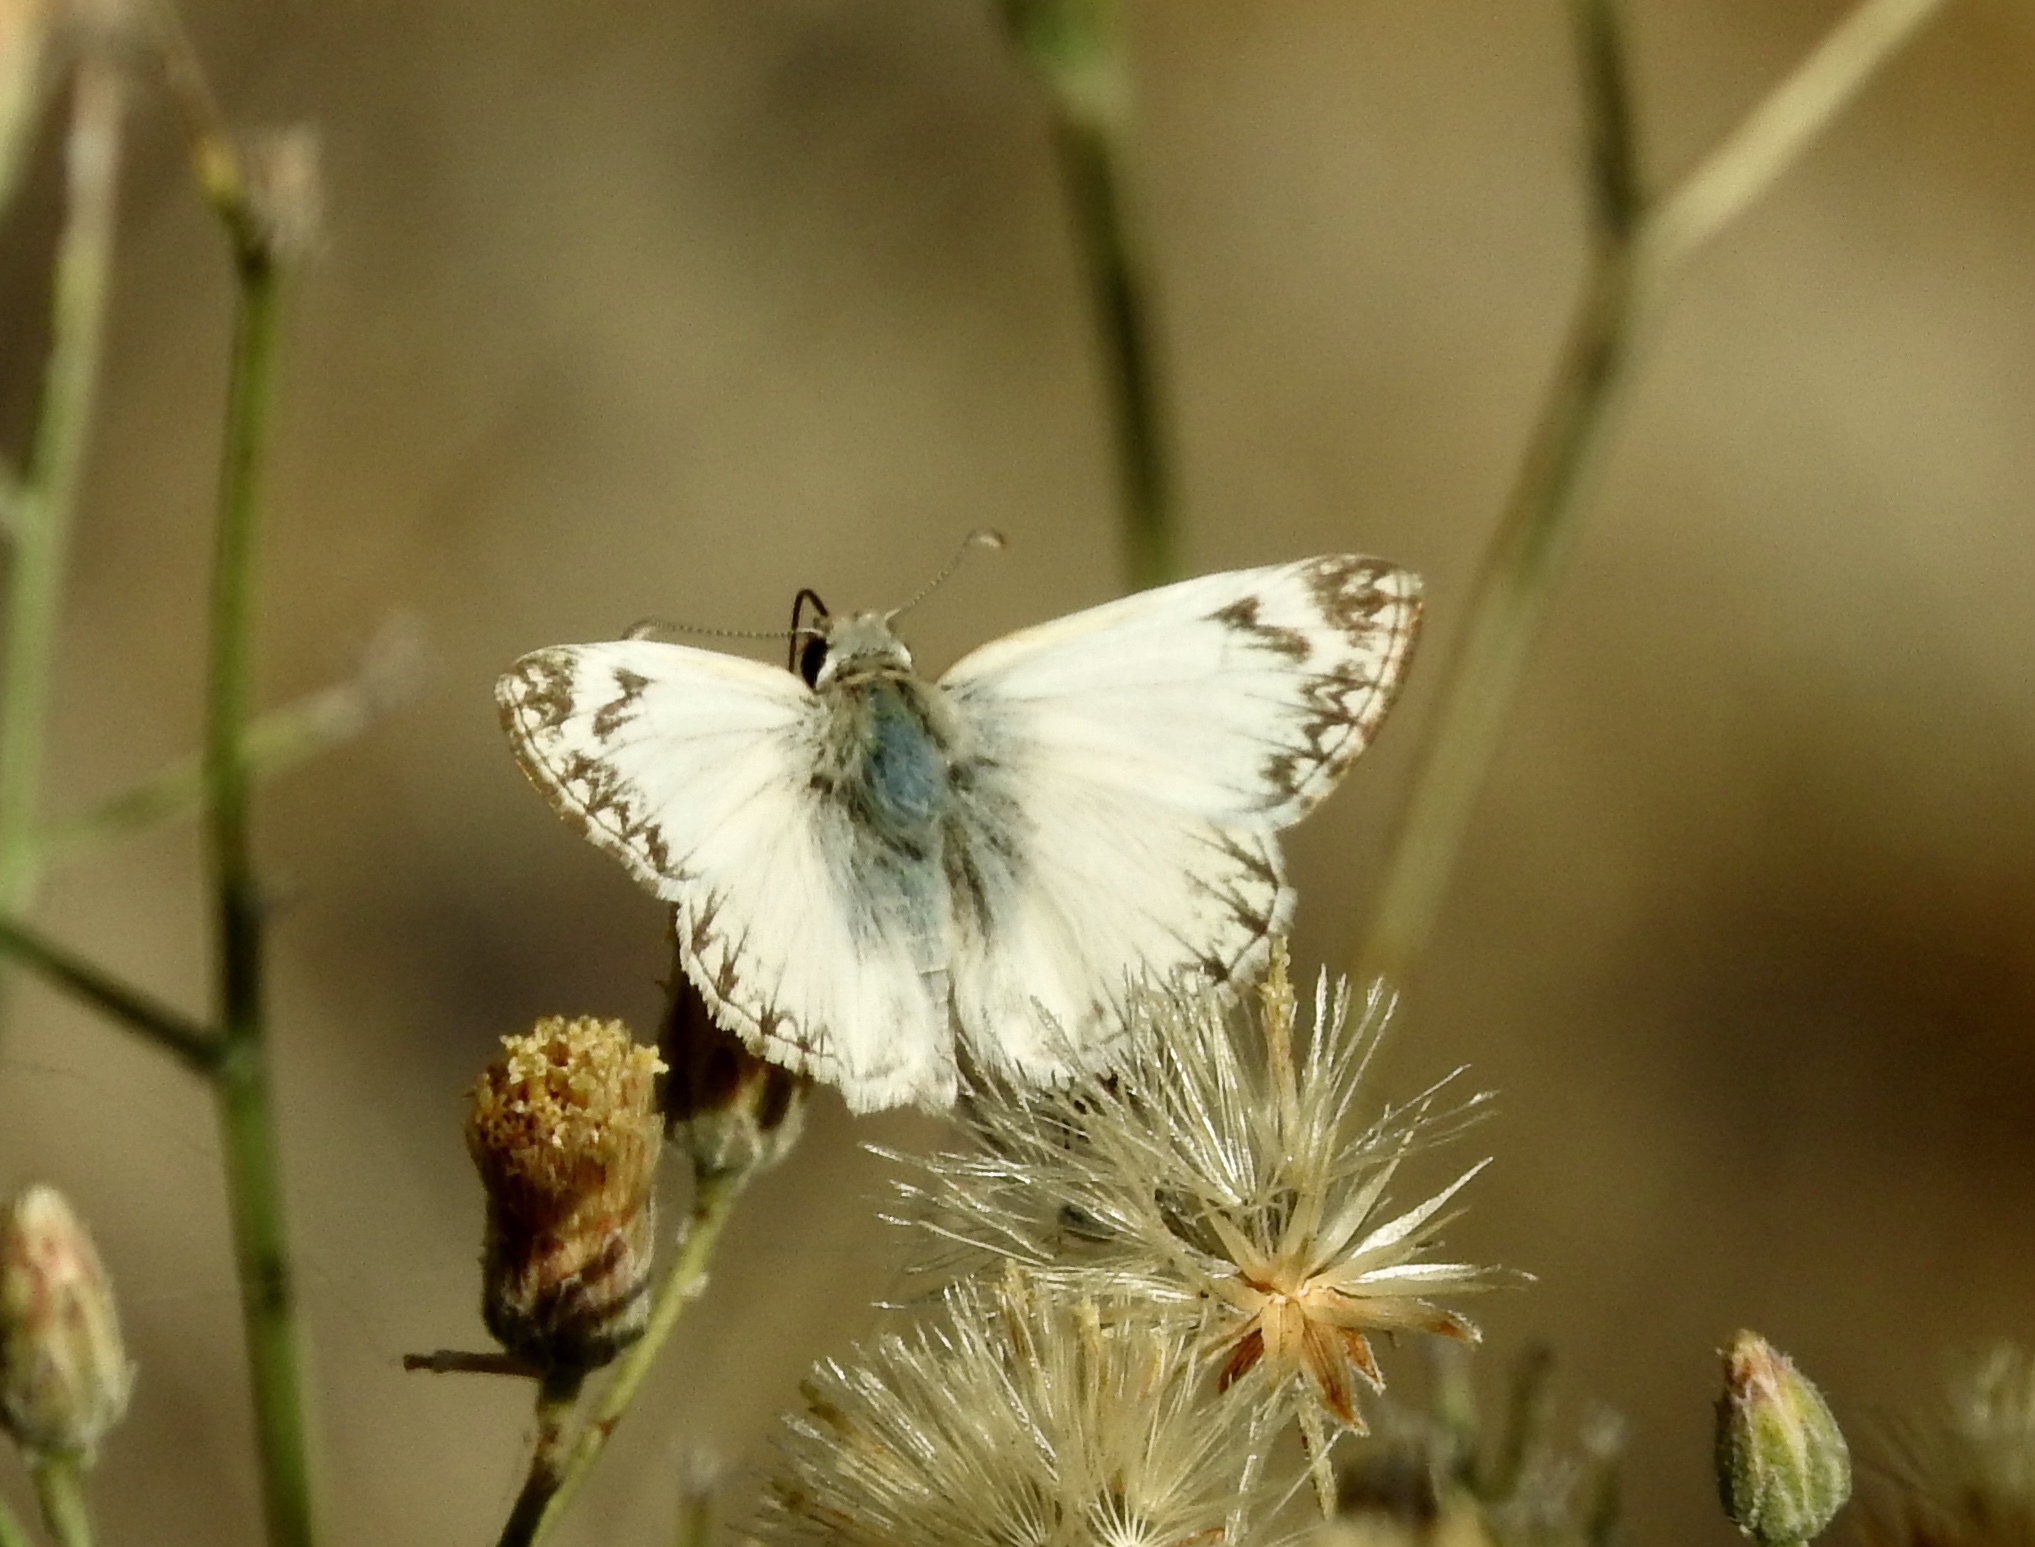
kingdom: Animalia
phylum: Arthropoda
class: Insecta
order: Lepidoptera
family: Hesperiidae
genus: Heliopetes
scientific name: Heliopetes ericetorum
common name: Northern white-skipper
